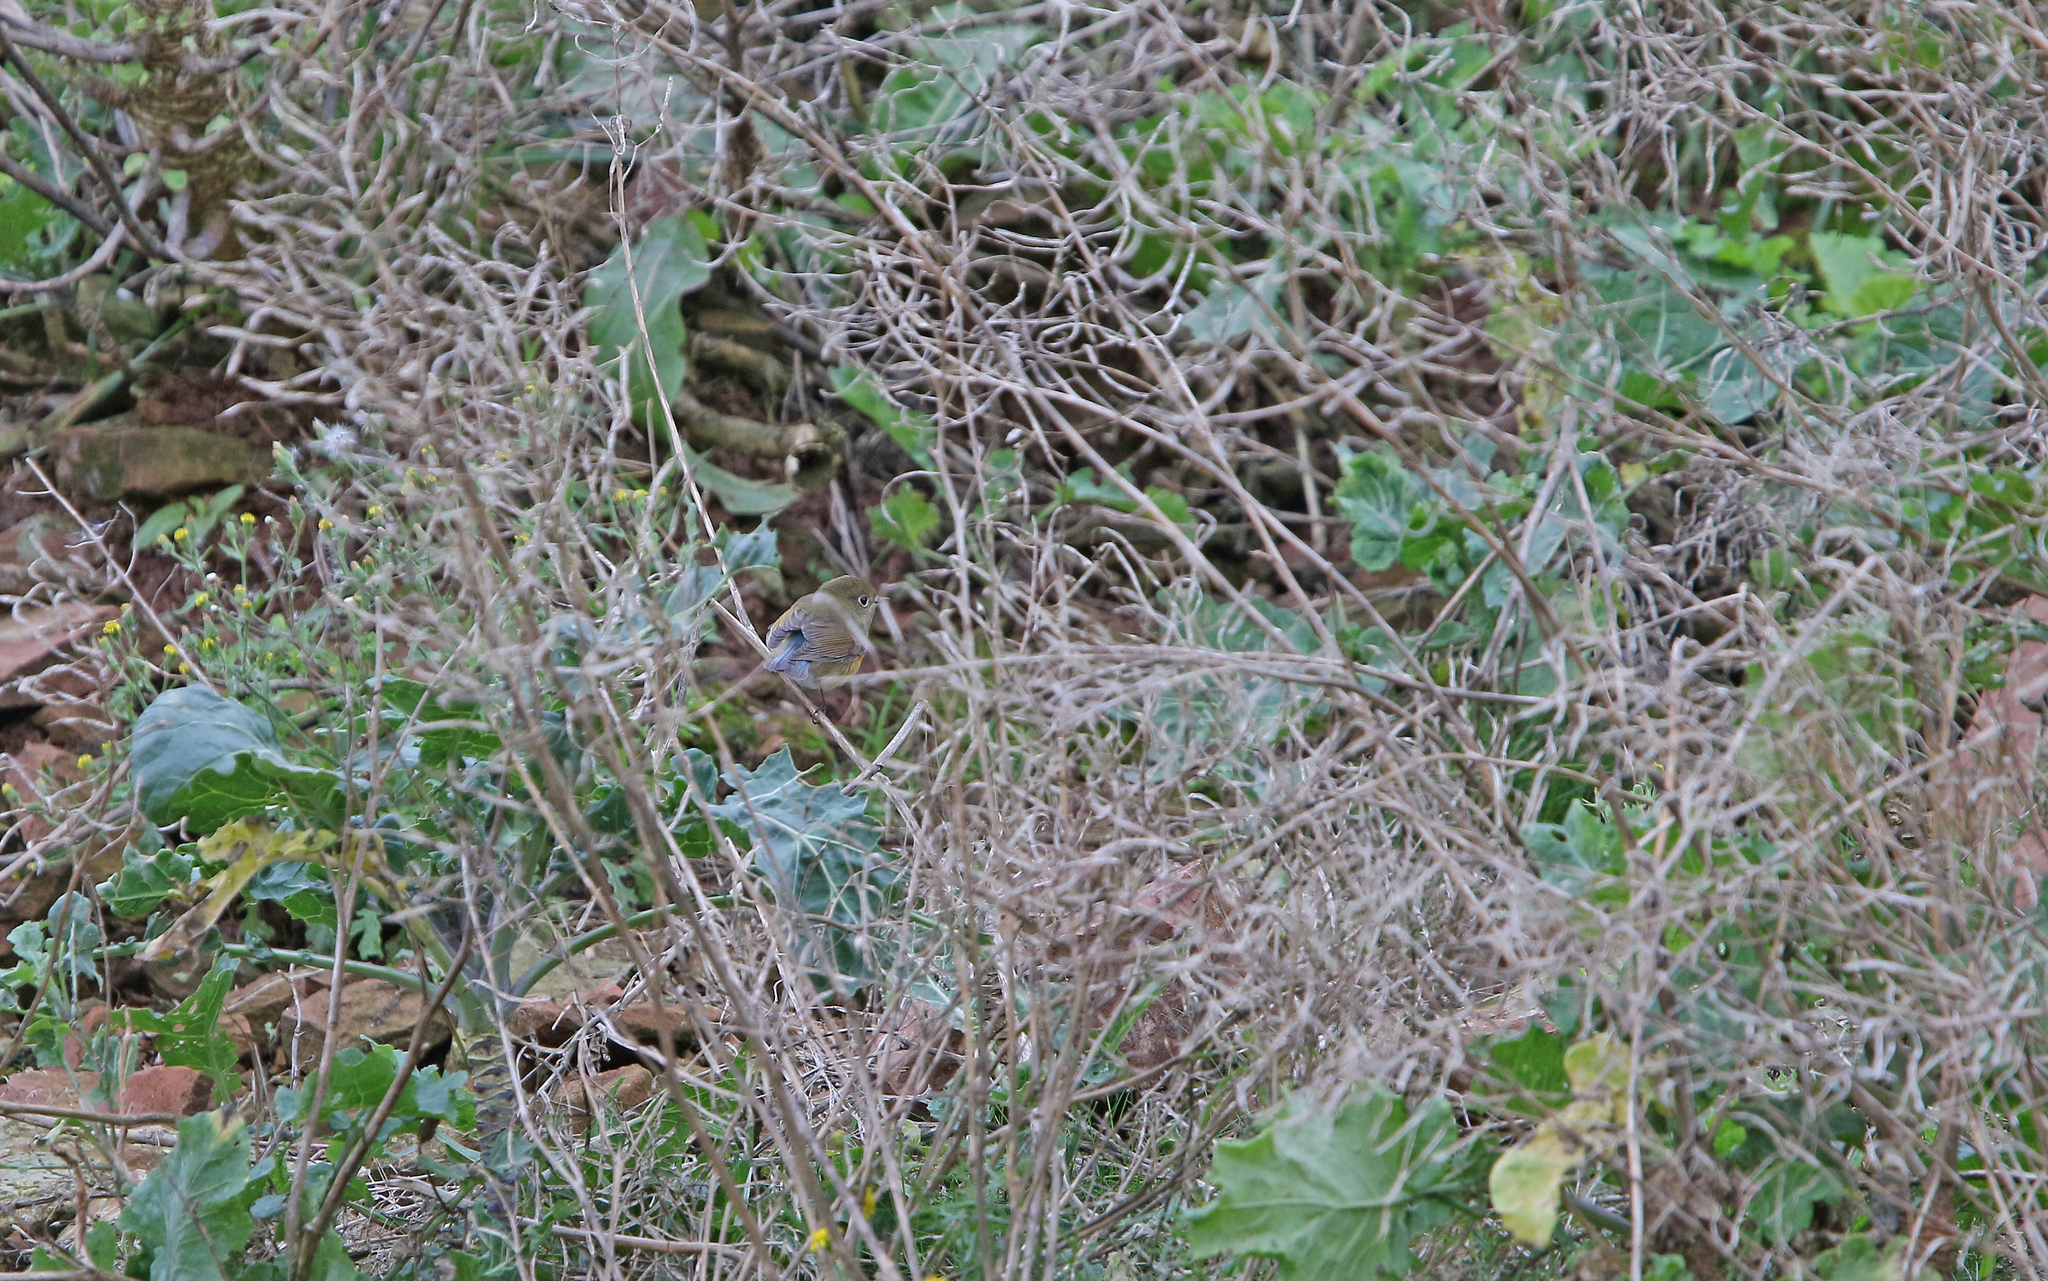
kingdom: Animalia
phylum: Chordata
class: Aves
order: Passeriformes
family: Muscicapidae
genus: Tarsiger
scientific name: Tarsiger cyanurus
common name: Red-flanked bluetail
